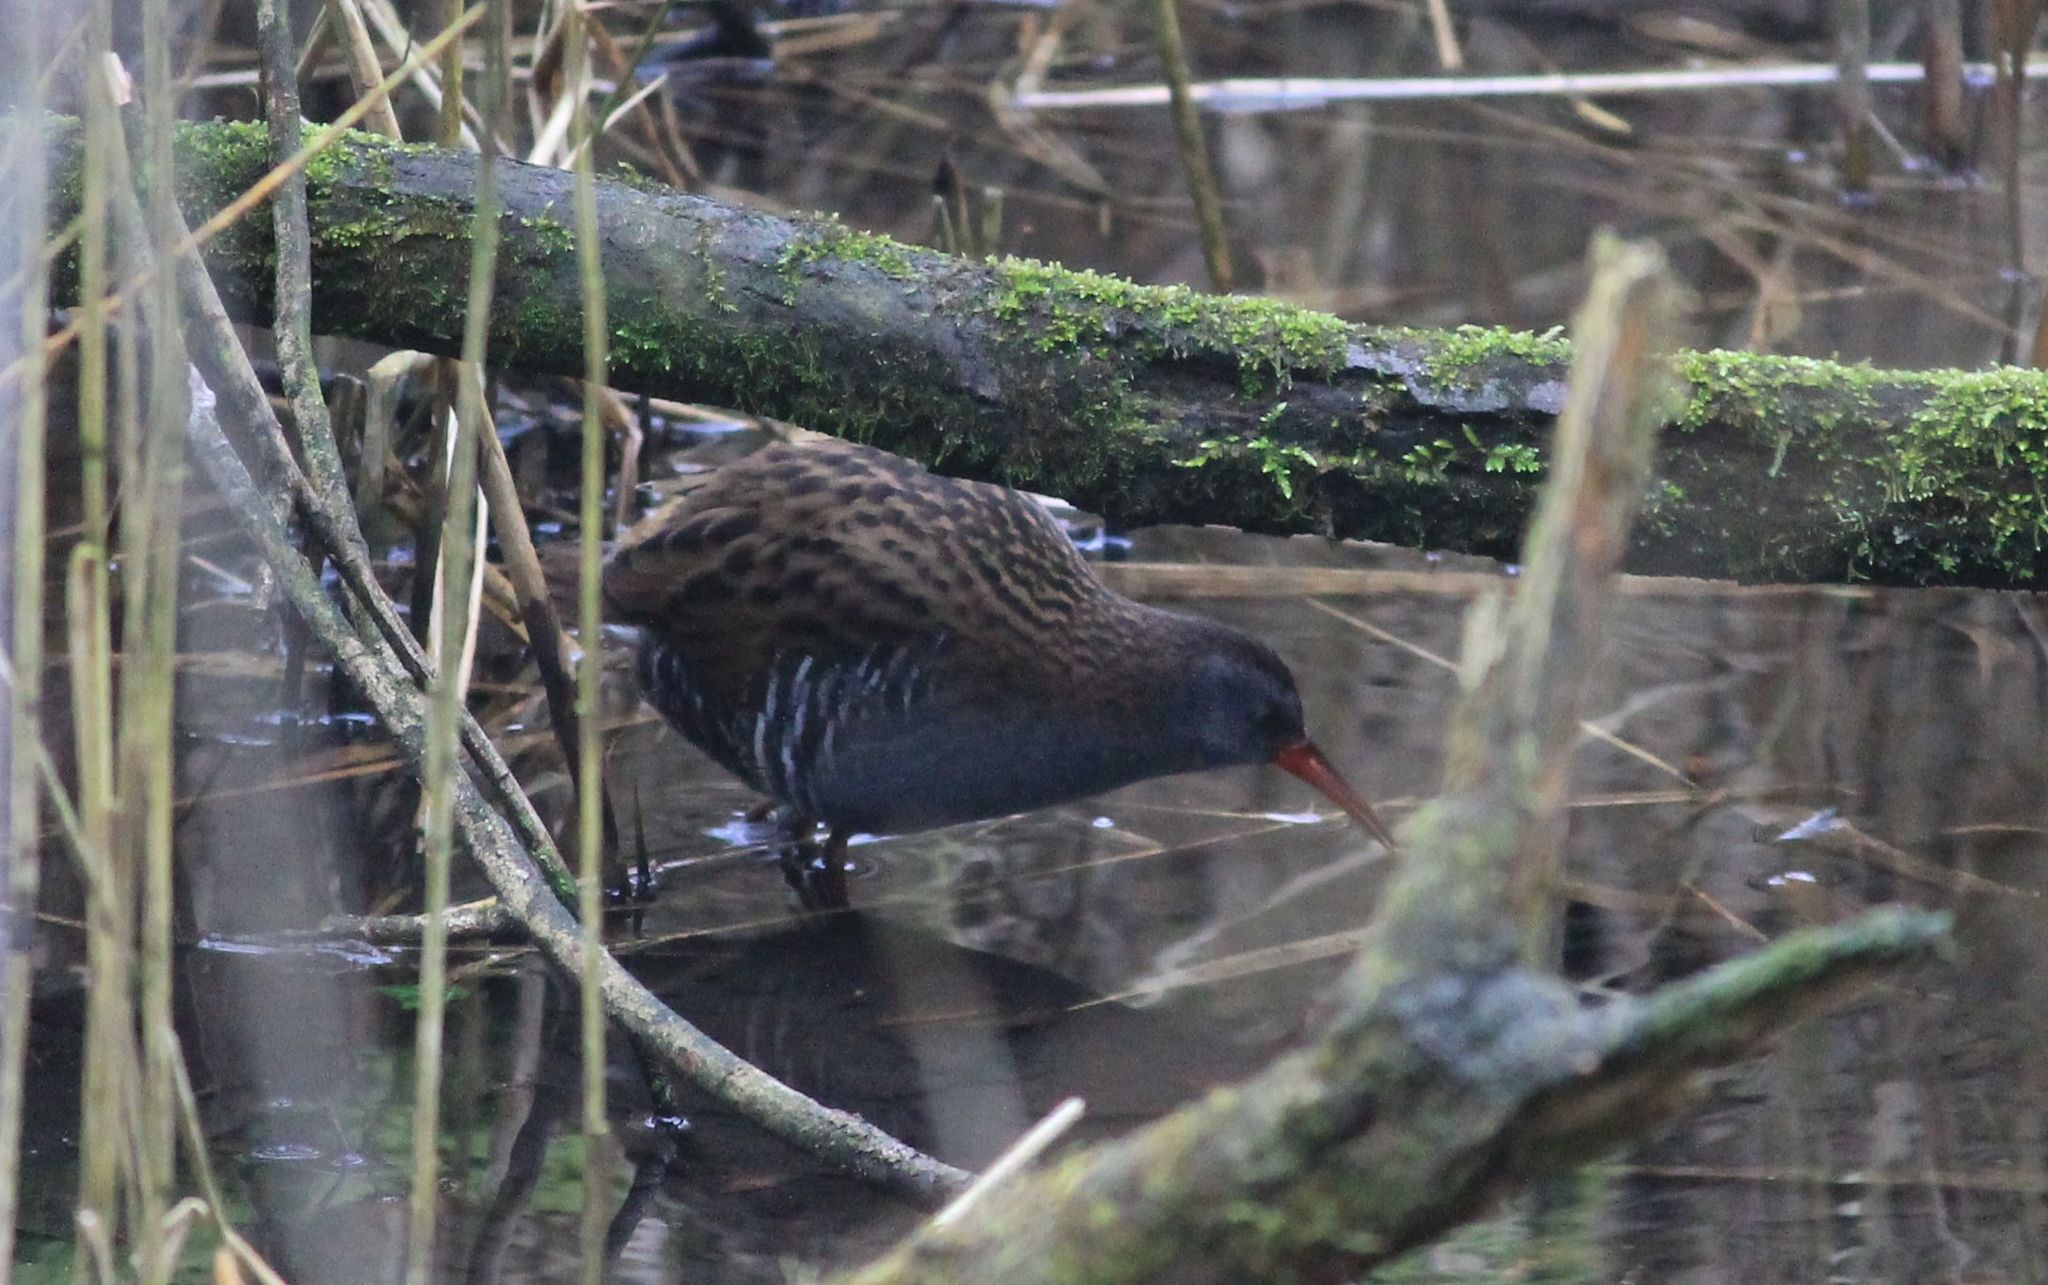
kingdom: Animalia
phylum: Chordata
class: Aves
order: Gruiformes
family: Rallidae
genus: Rallus
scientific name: Rallus aquaticus
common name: Water rail
